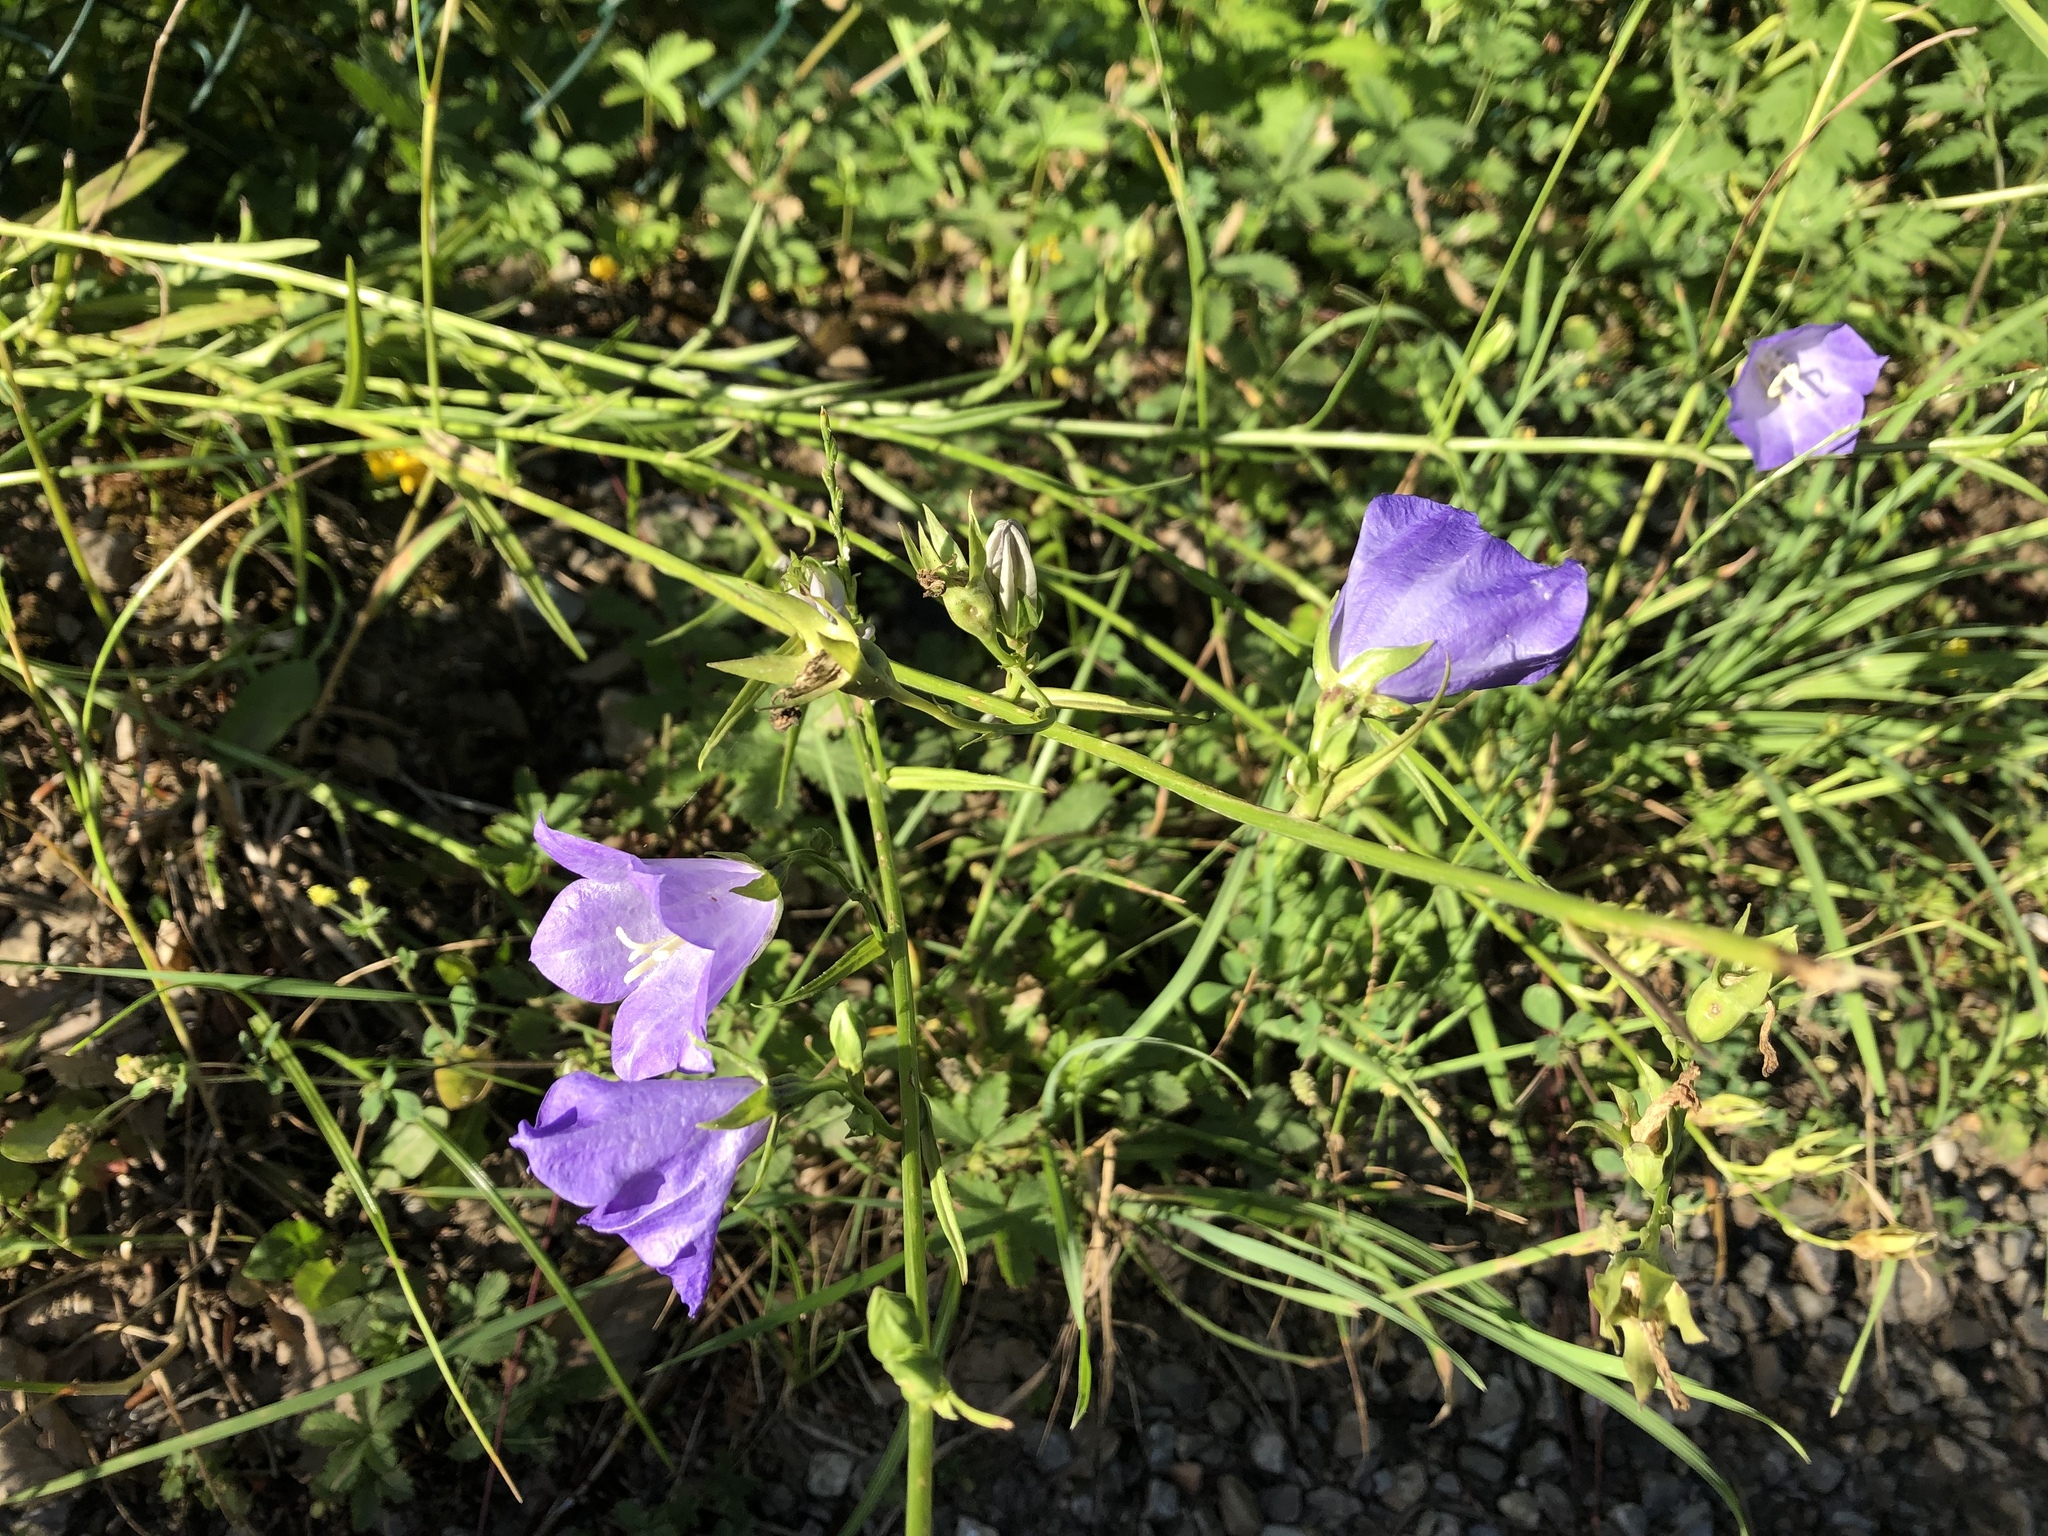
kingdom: Plantae
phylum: Tracheophyta
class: Magnoliopsida
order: Asterales
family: Campanulaceae
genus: Campanula
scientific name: Campanula persicifolia
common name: Peach-leaved bellflower
